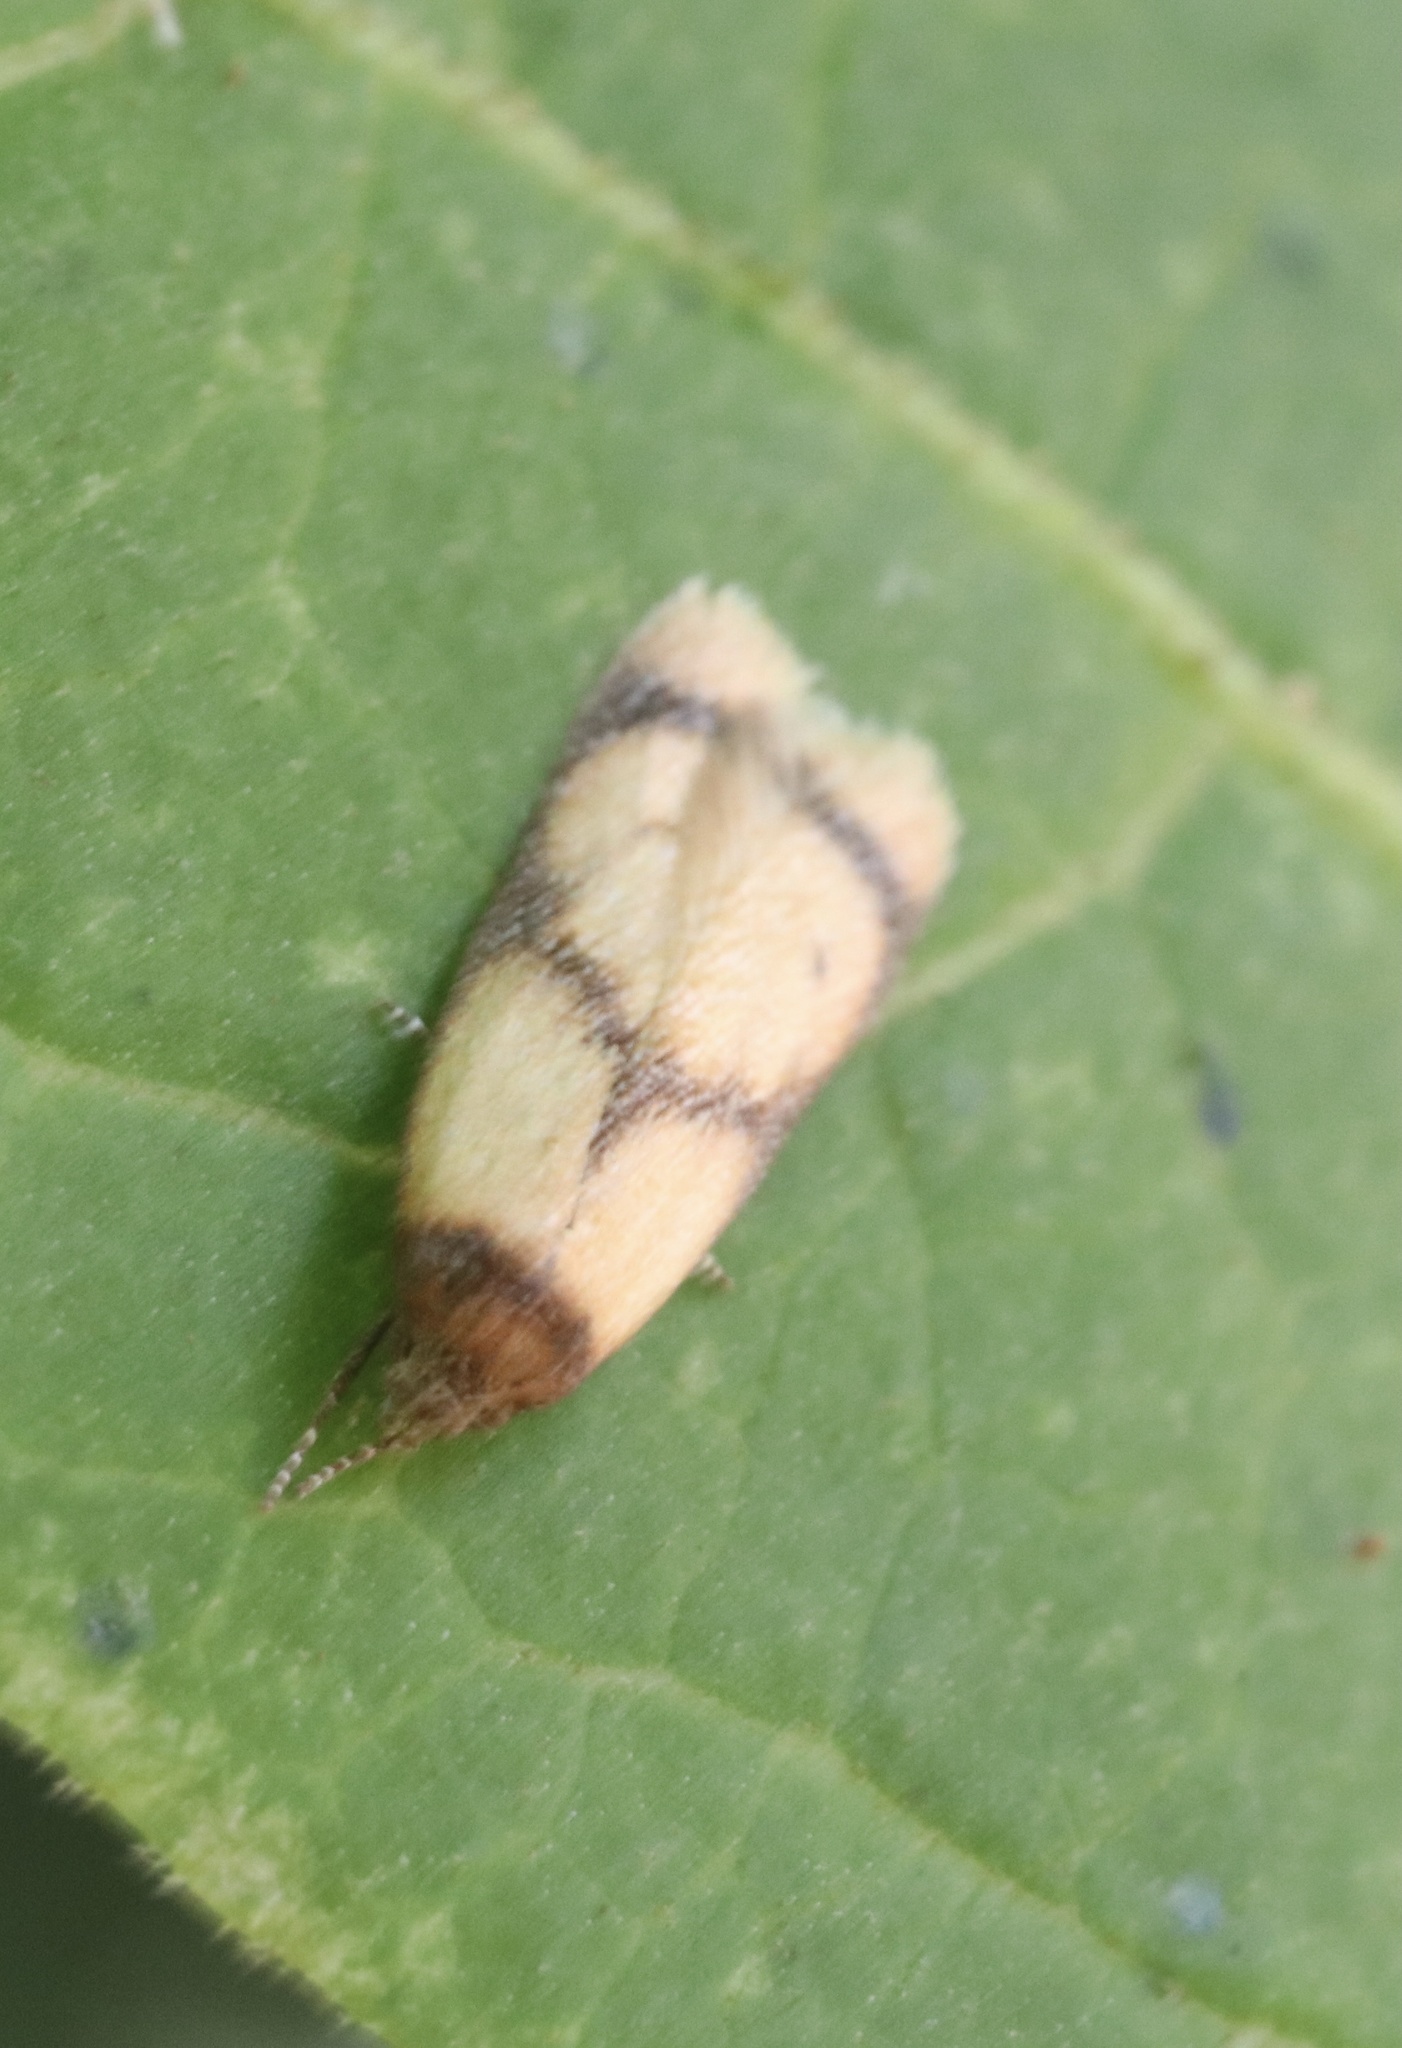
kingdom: Animalia
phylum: Arthropoda
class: Insecta
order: Lepidoptera
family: Oecophoridae
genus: Gildita
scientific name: Gildita luteonigra
